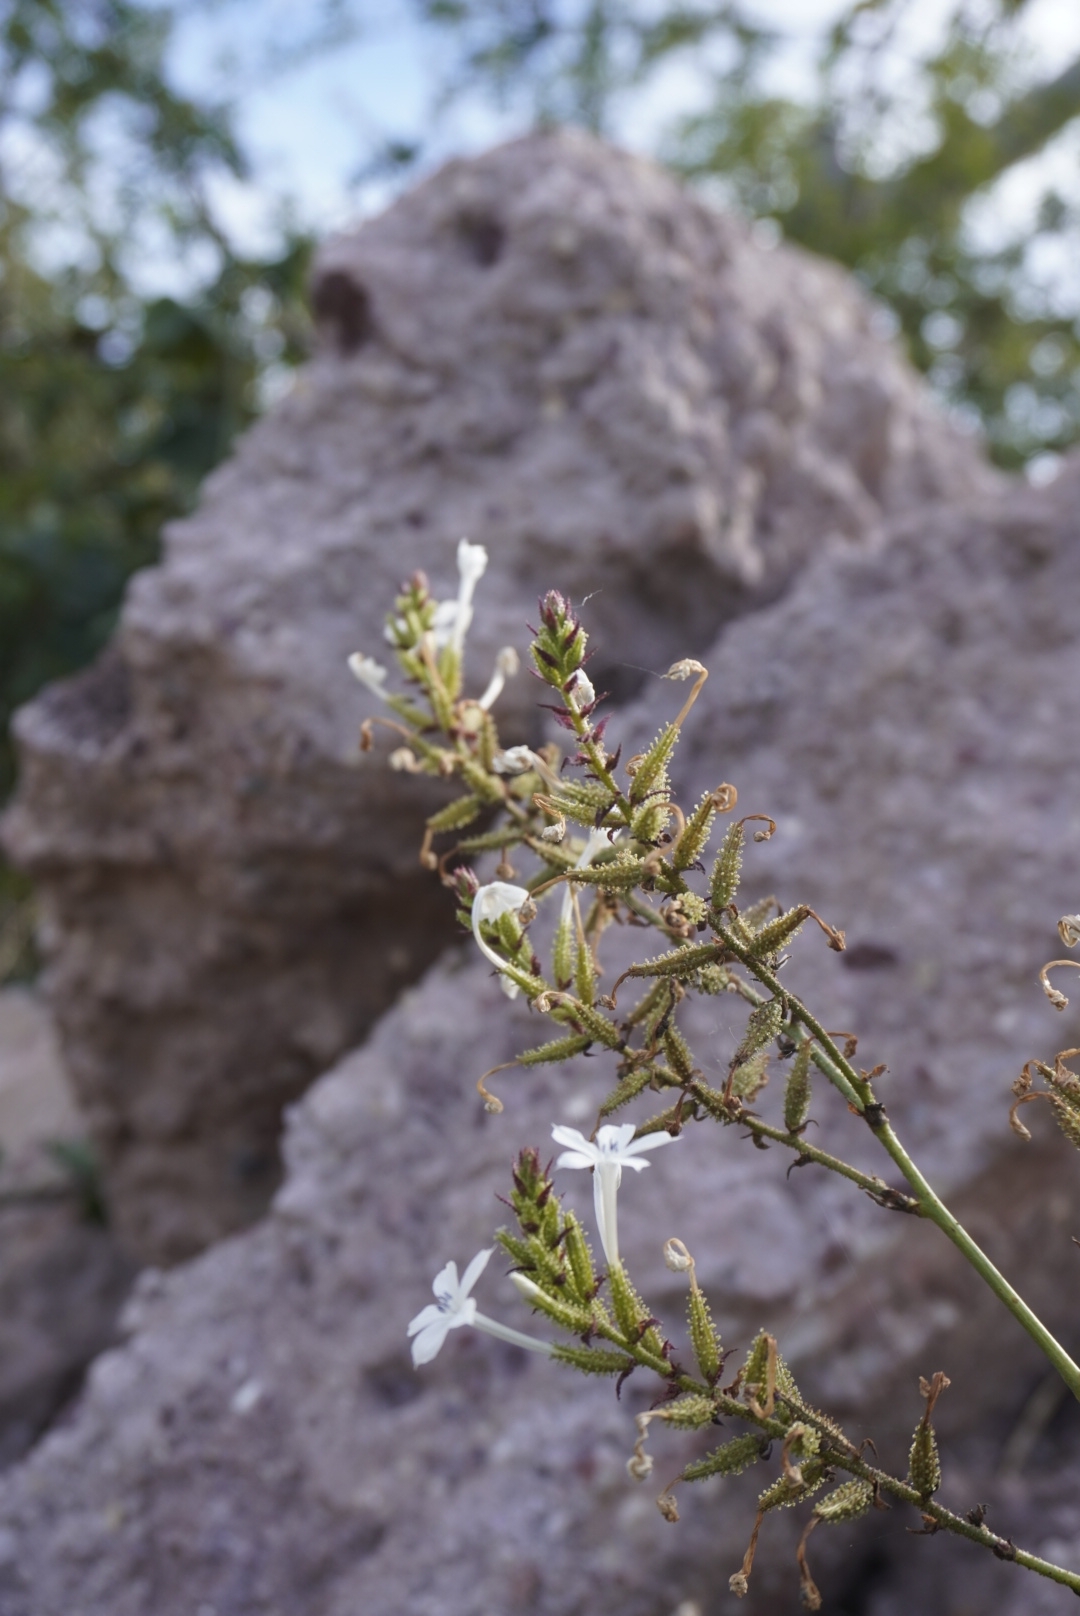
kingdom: Plantae
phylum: Tracheophyta
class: Magnoliopsida
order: Caryophyllales
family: Plumbaginaceae
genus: Plumbago
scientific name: Plumbago zeylanica
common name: Doctorbush
